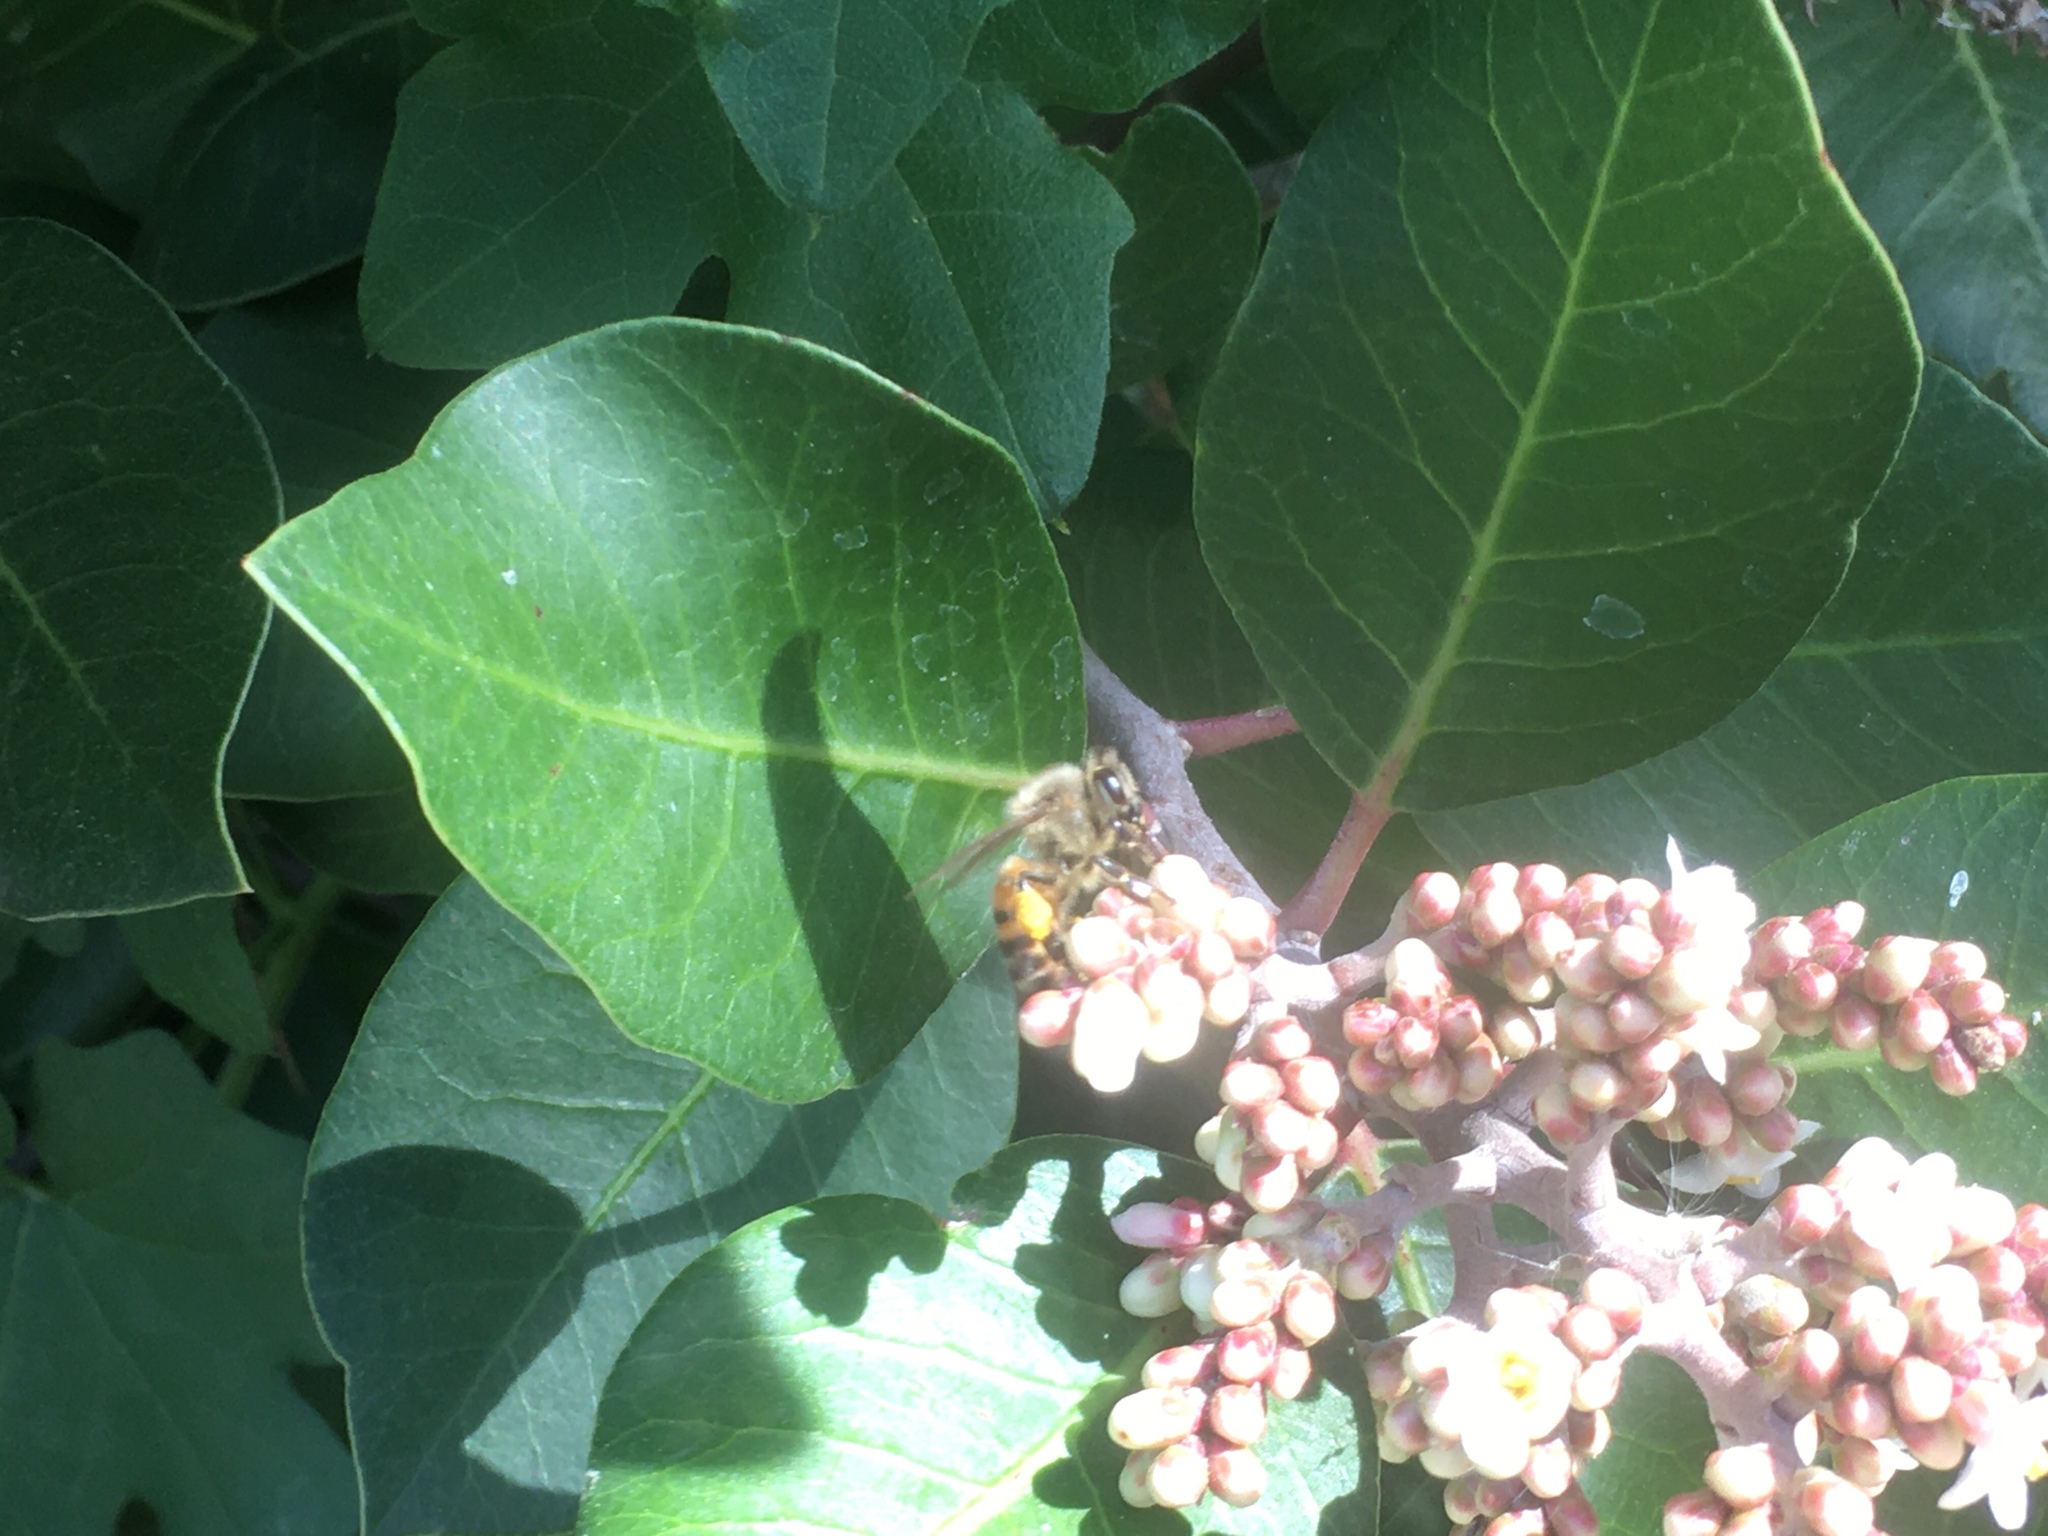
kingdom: Animalia
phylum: Arthropoda
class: Insecta
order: Hymenoptera
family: Apidae
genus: Apis
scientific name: Apis mellifera
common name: Honey bee
